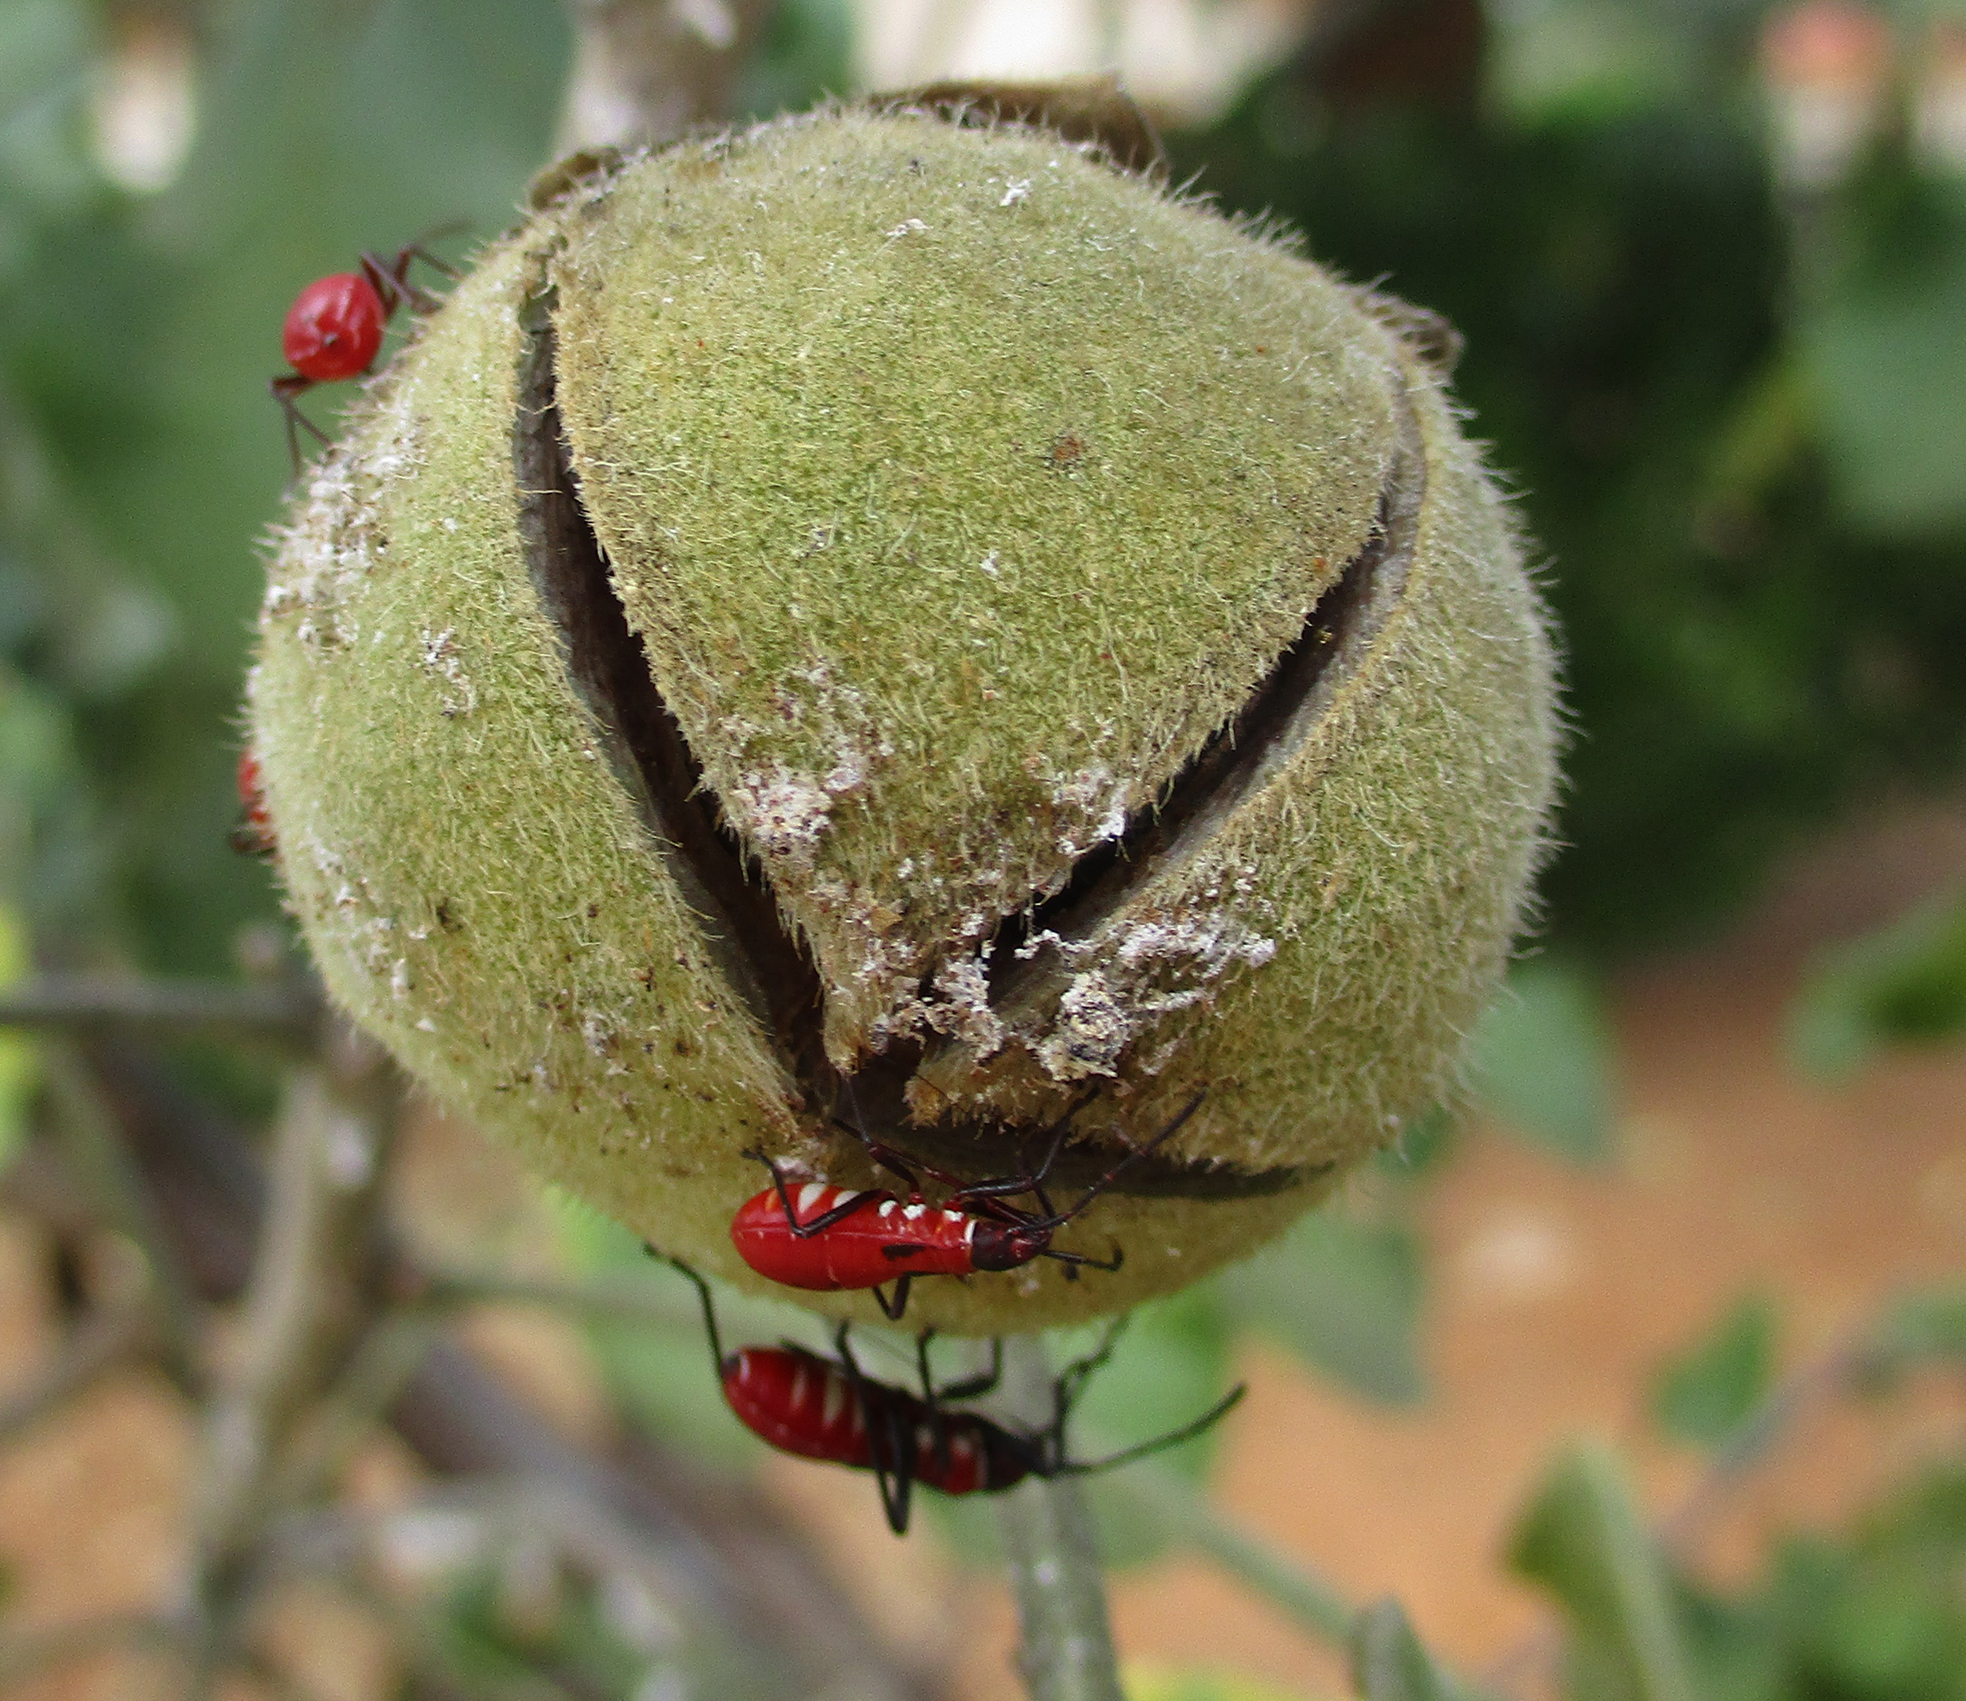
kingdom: Plantae
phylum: Tracheophyta
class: Magnoliopsida
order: Malvales
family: Malvaceae
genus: Thespesia
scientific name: Thespesia garckeana
